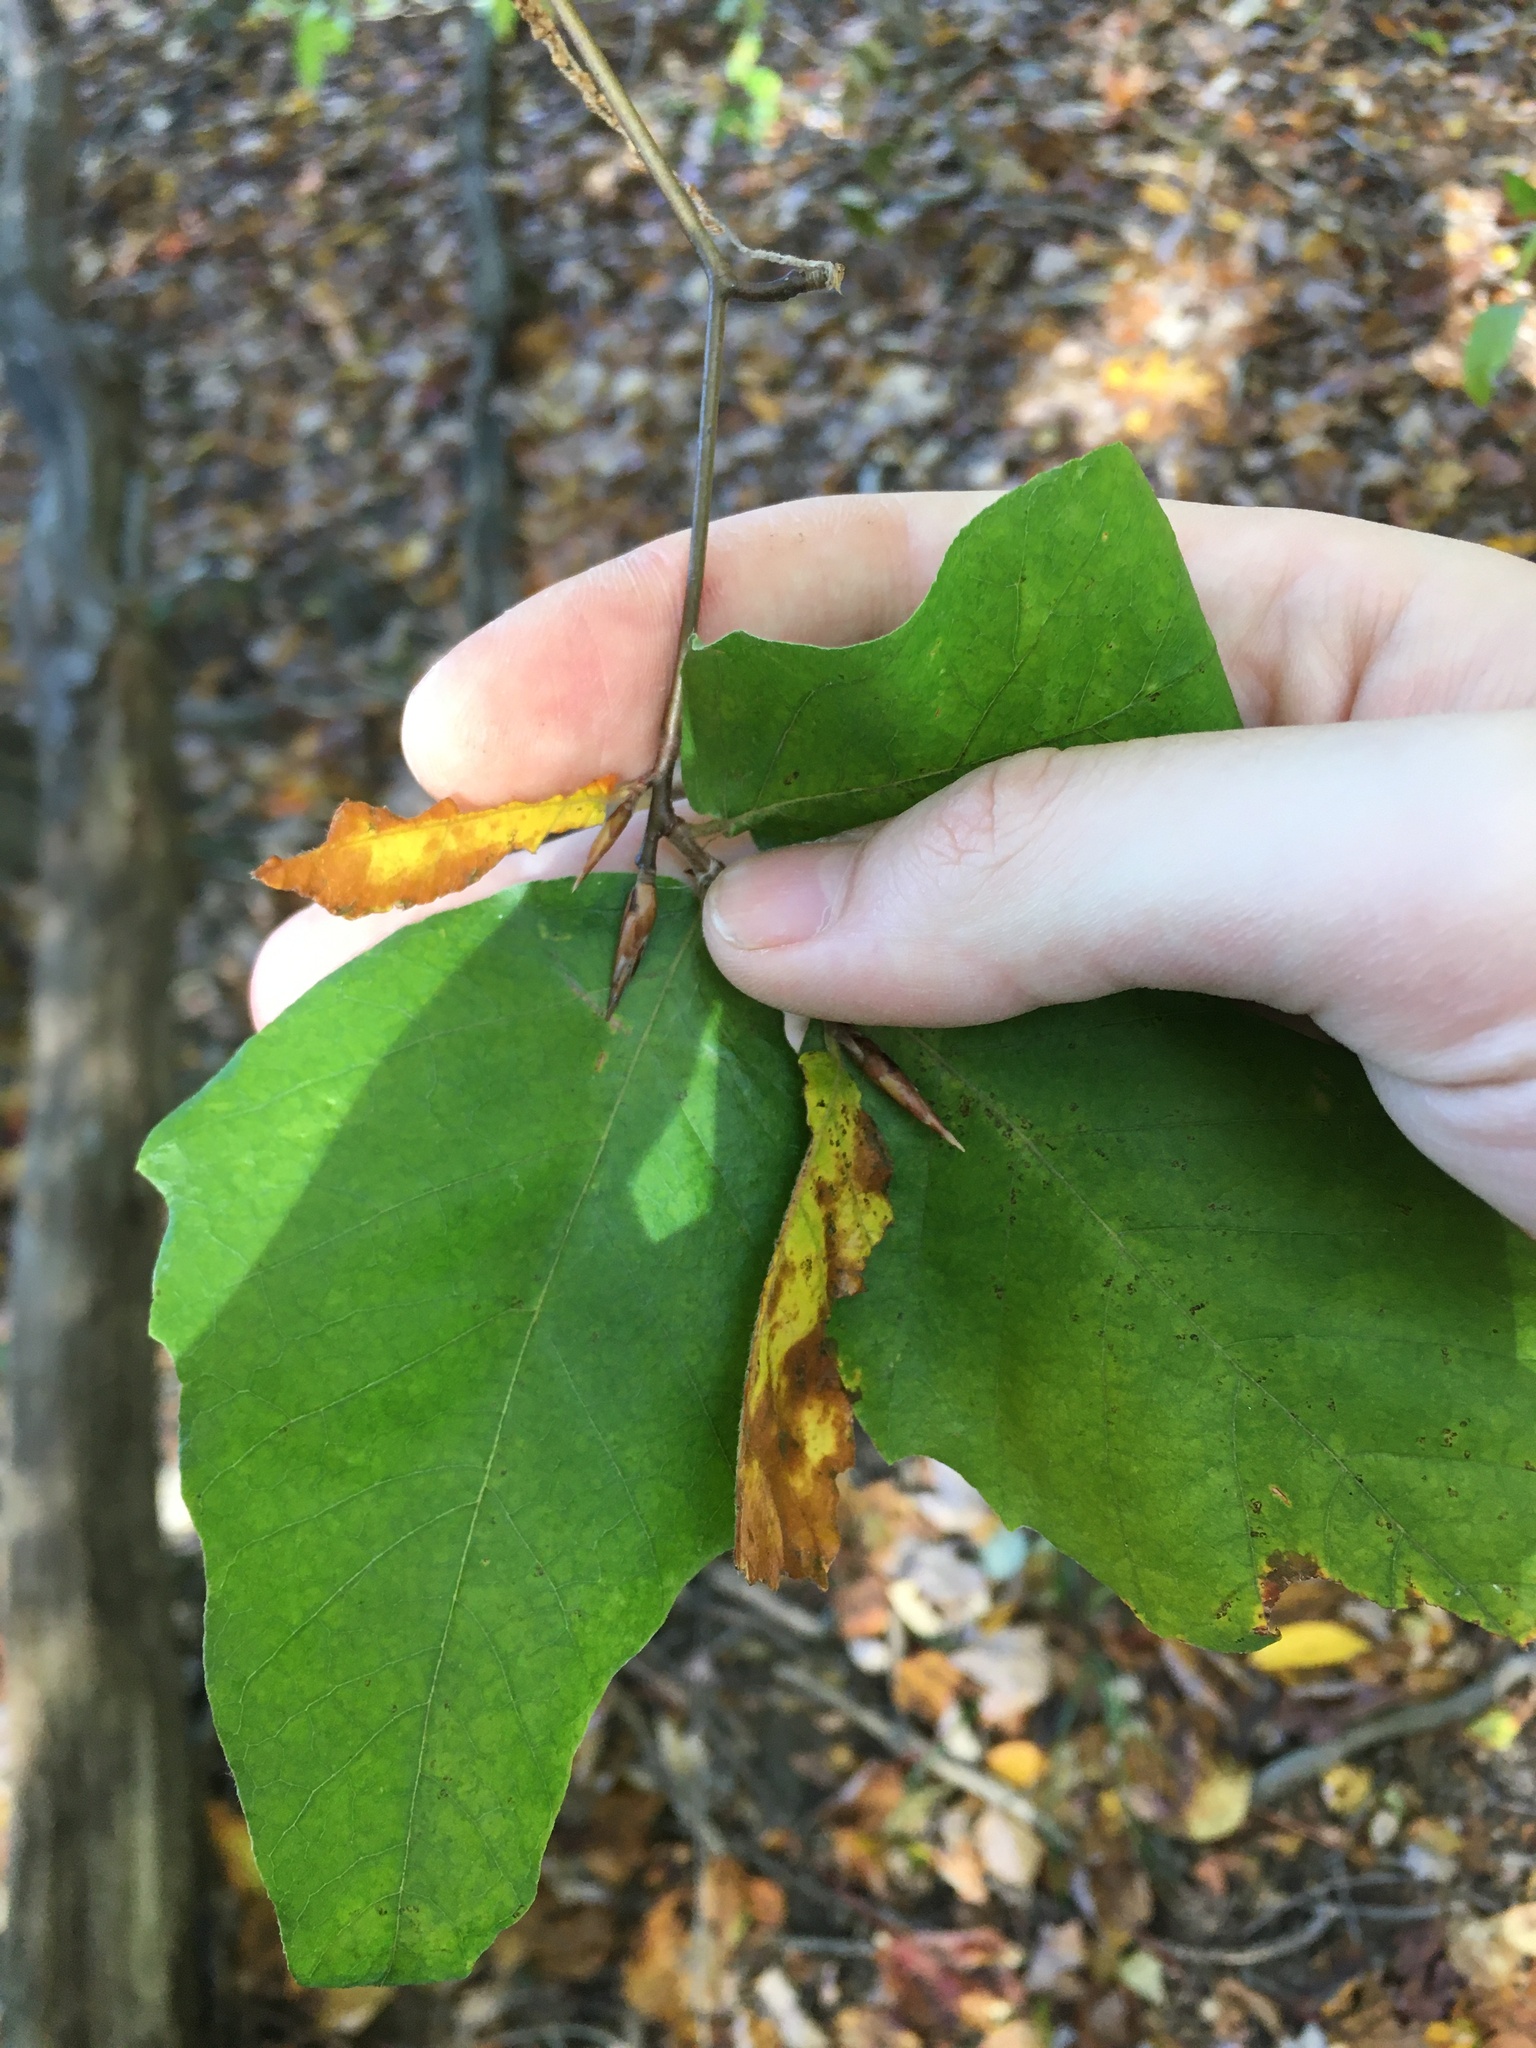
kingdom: Plantae
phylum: Tracheophyta
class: Magnoliopsida
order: Fagales
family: Fagaceae
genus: Fagus
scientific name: Fagus grandifolia
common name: American beech
